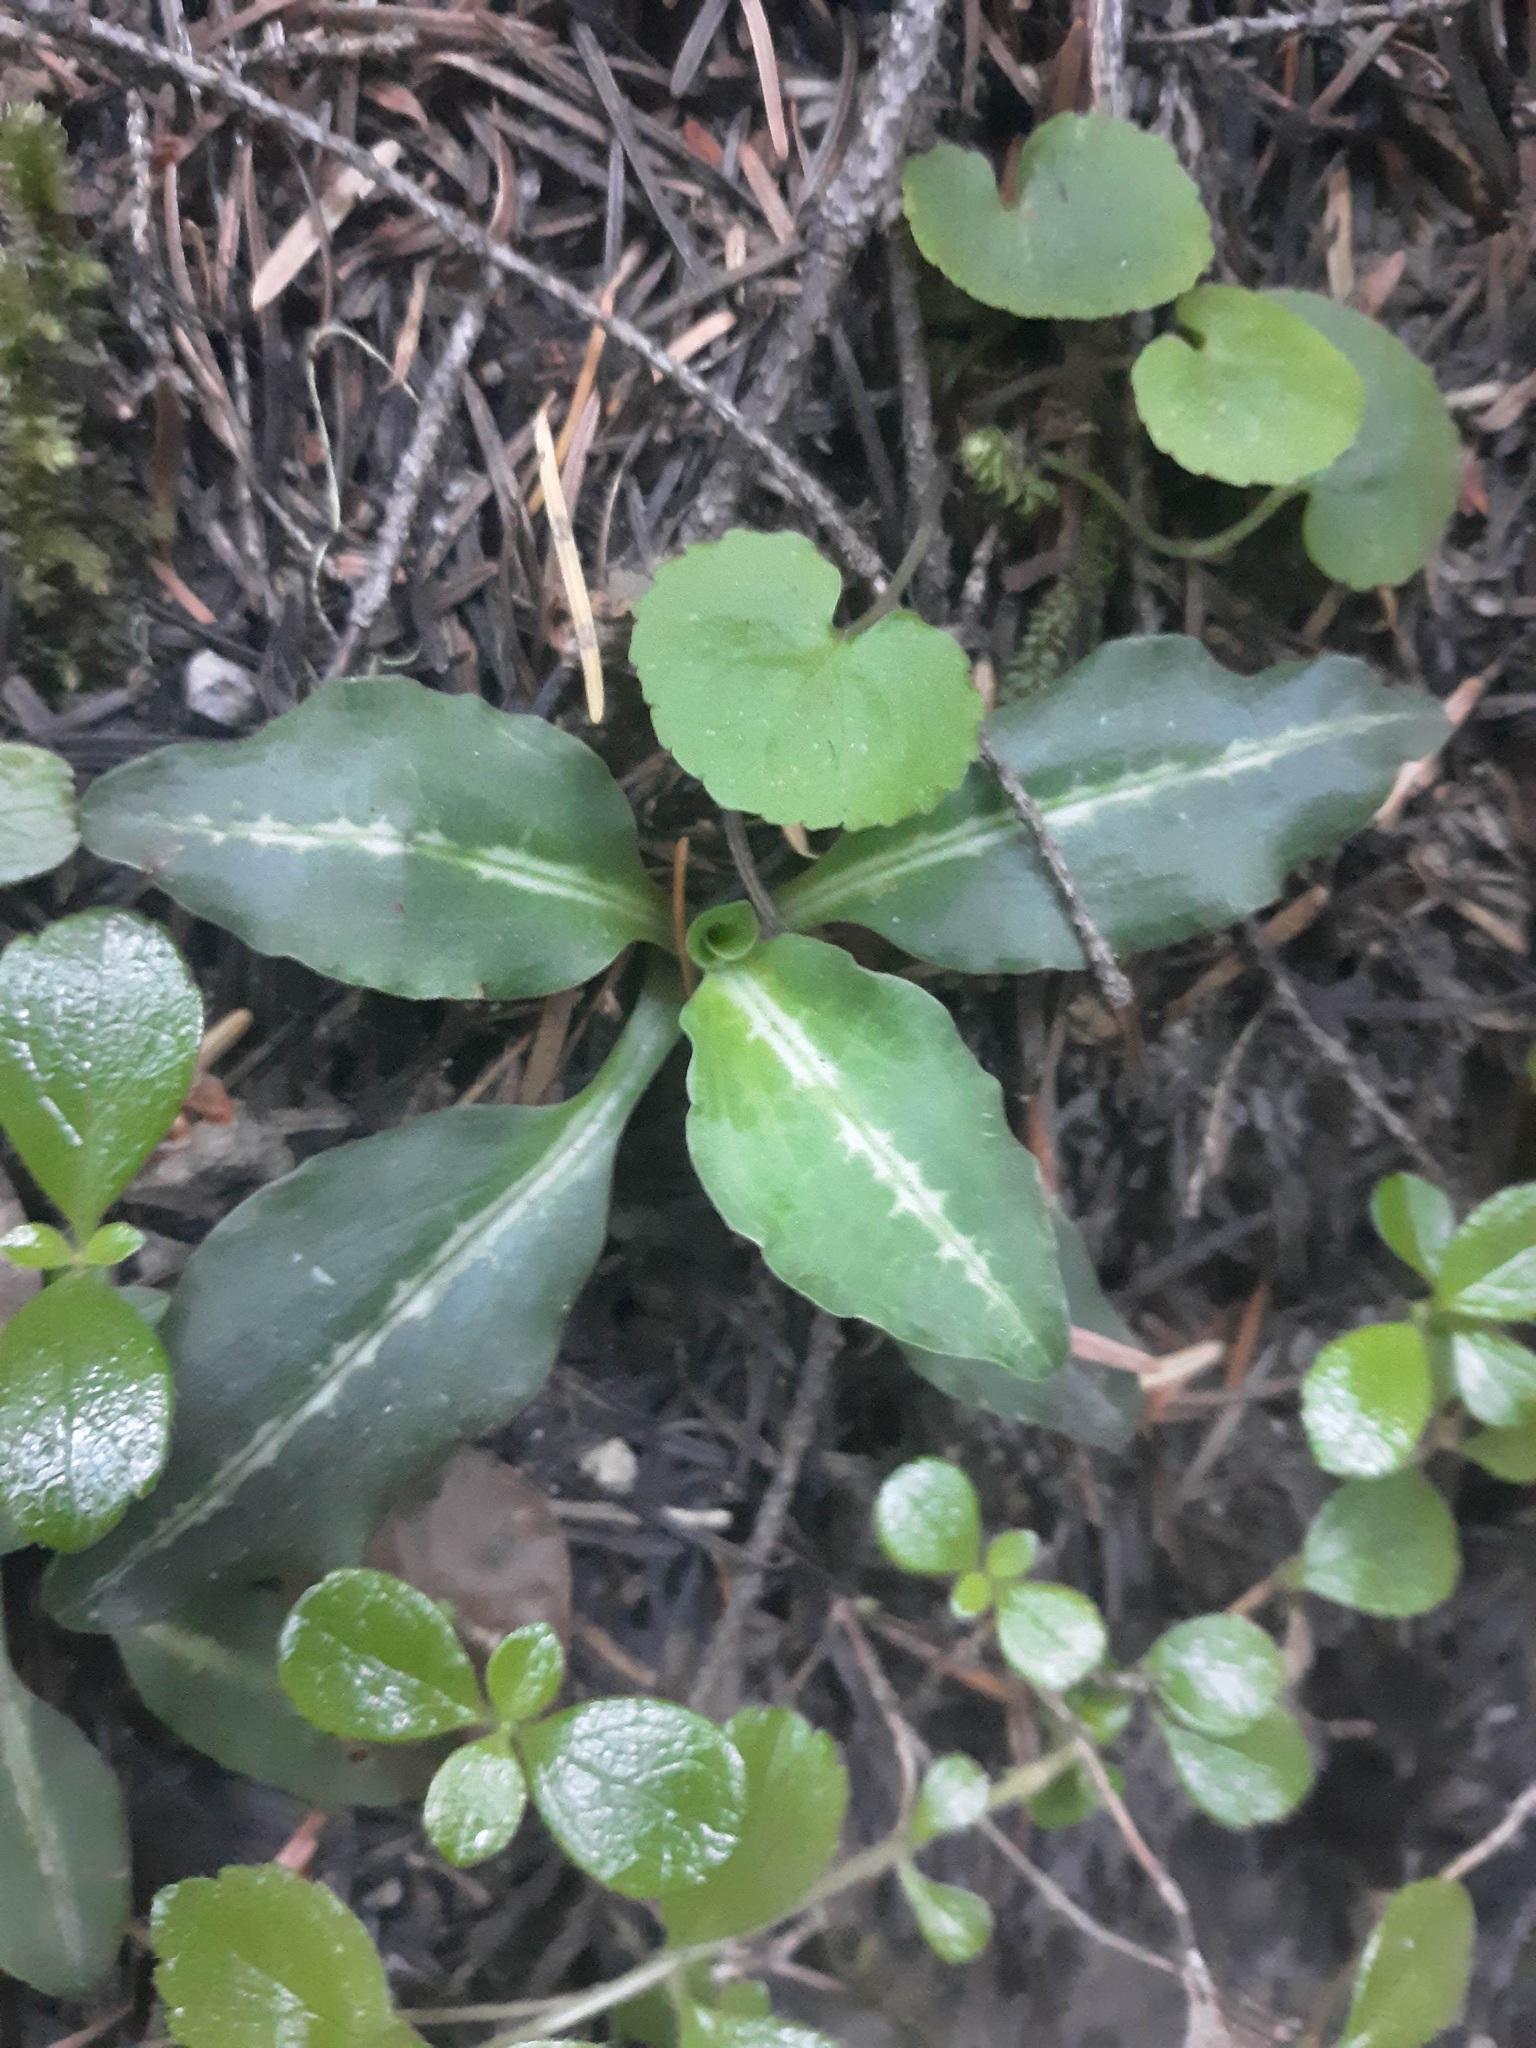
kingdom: Plantae
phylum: Tracheophyta
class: Liliopsida
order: Asparagales
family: Orchidaceae
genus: Goodyera
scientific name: Goodyera oblongifolia
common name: Giant rattlesnake-plantain
